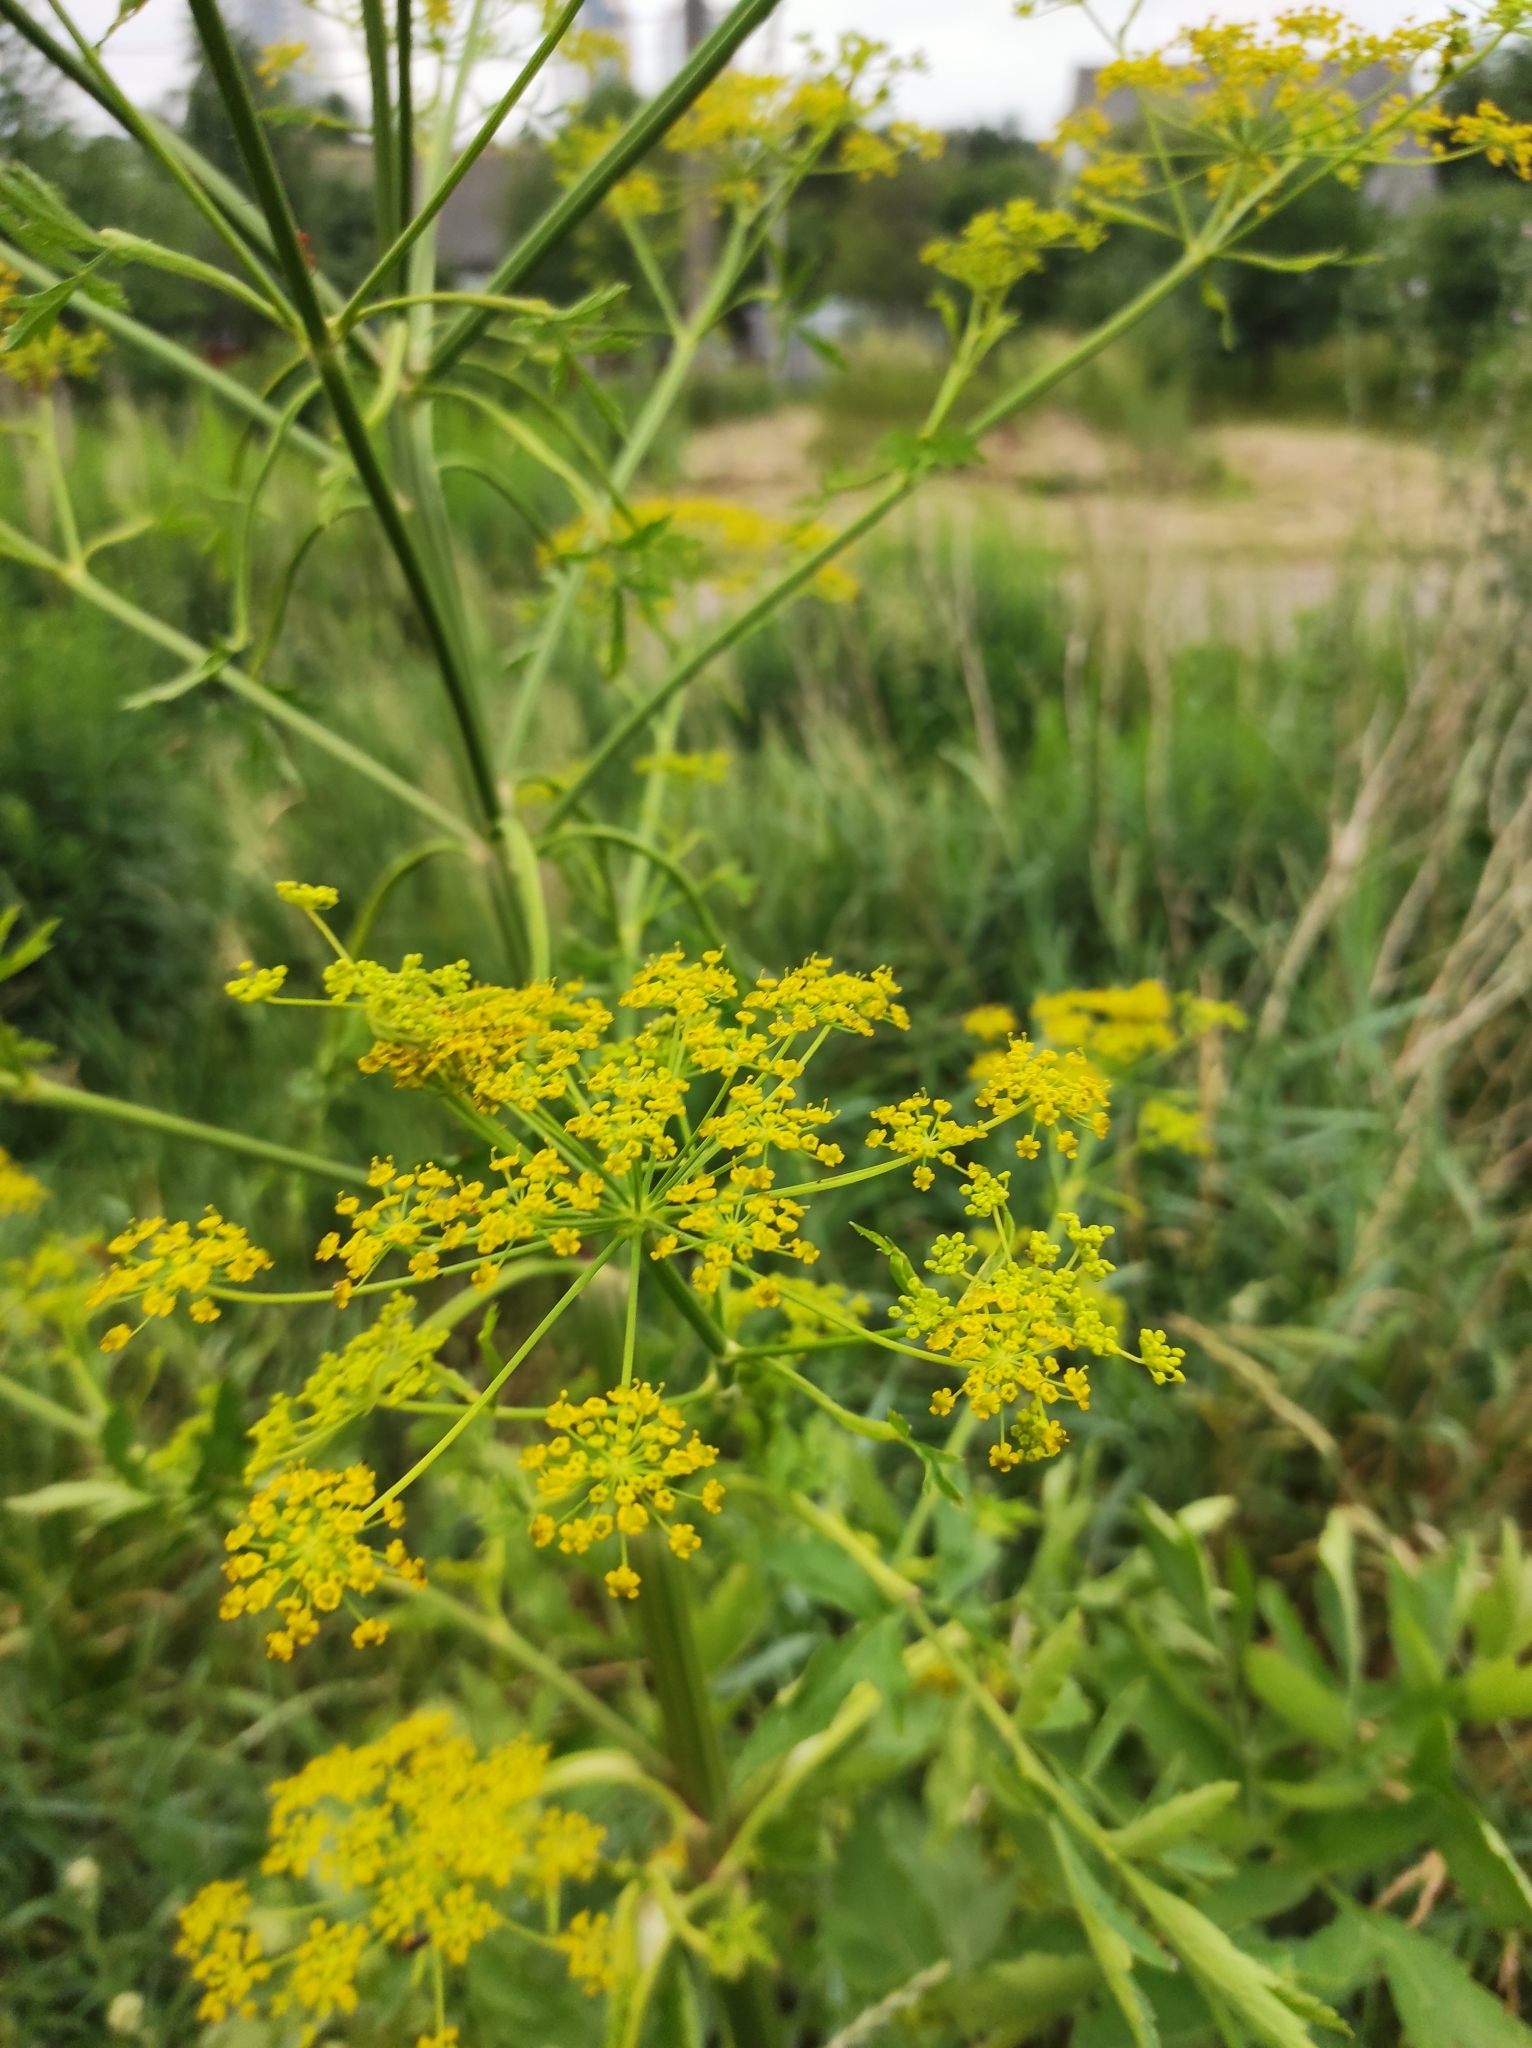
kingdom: Plantae
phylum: Tracheophyta
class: Magnoliopsida
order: Apiales
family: Apiaceae
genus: Pastinaca
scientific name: Pastinaca sativa
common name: Wild parsnip
